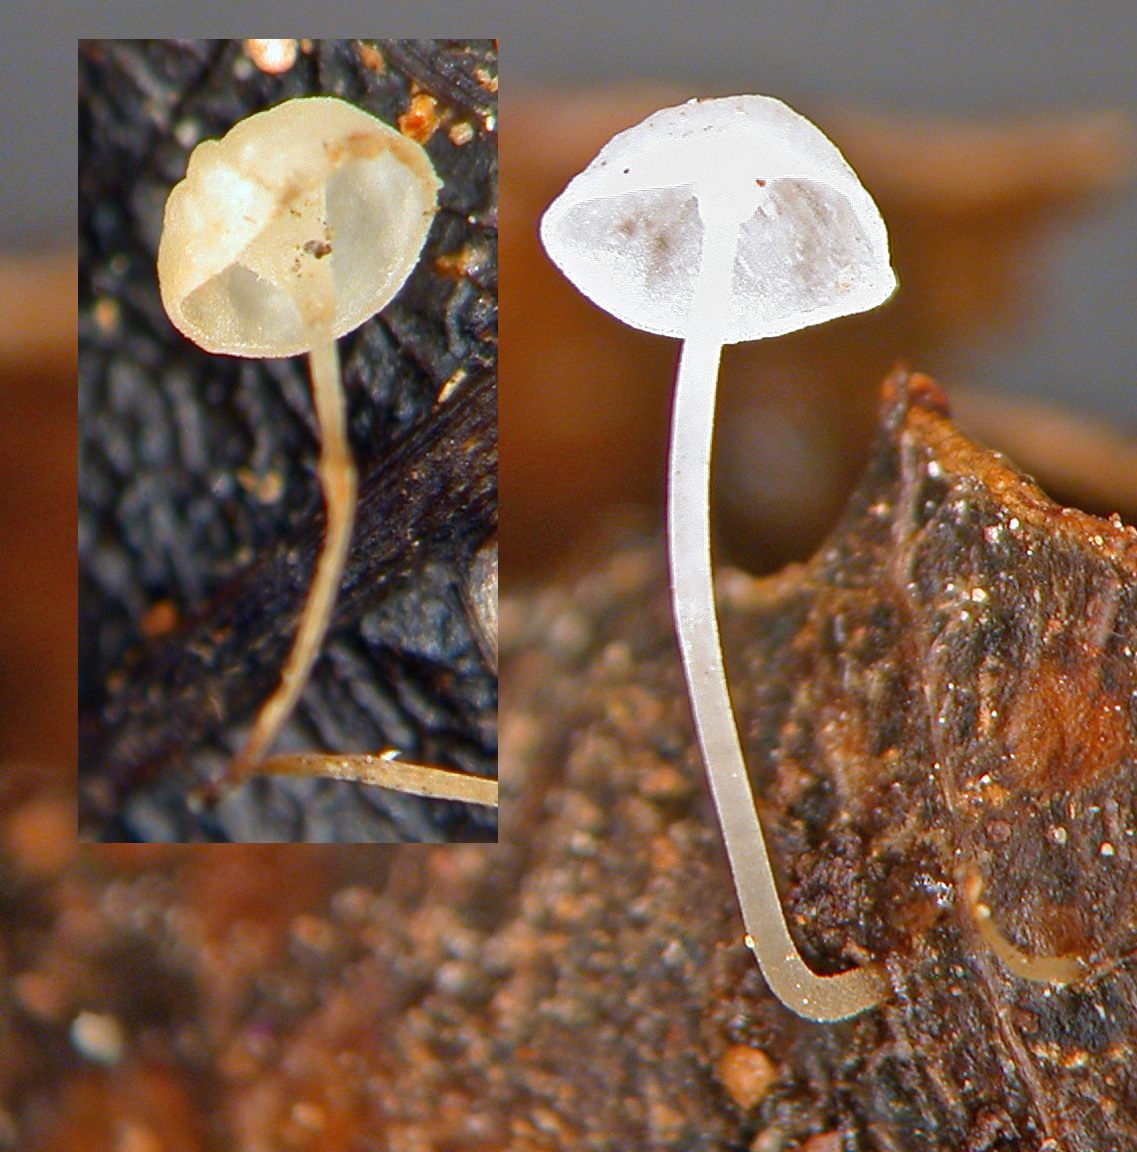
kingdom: Fungi
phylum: Basidiomycota
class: Agaricomycetes
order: Agaricales
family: Marasmiaceae
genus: Marasmius
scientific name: Marasmius perpusillus
